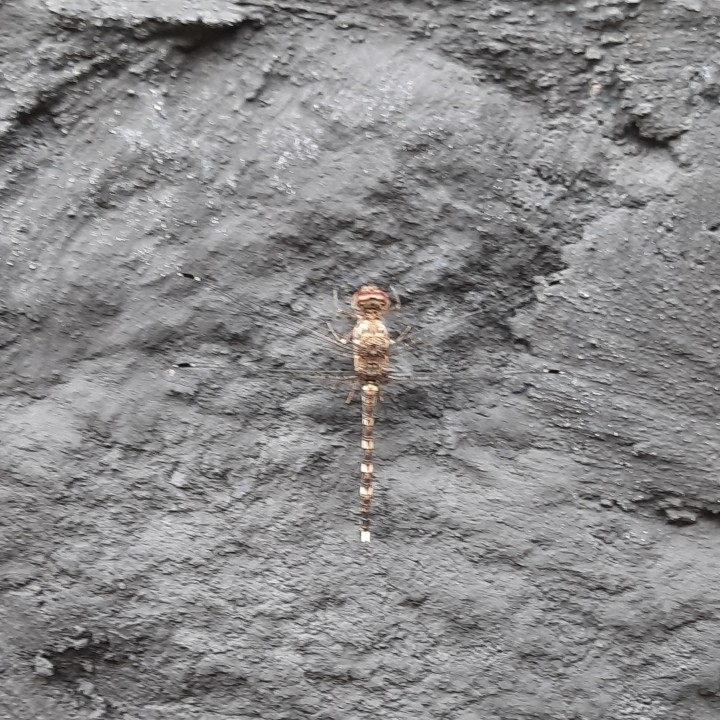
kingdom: Animalia
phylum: Arthropoda
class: Insecta
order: Odonata
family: Libellulidae
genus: Bradinopyga
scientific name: Bradinopyga geminata
